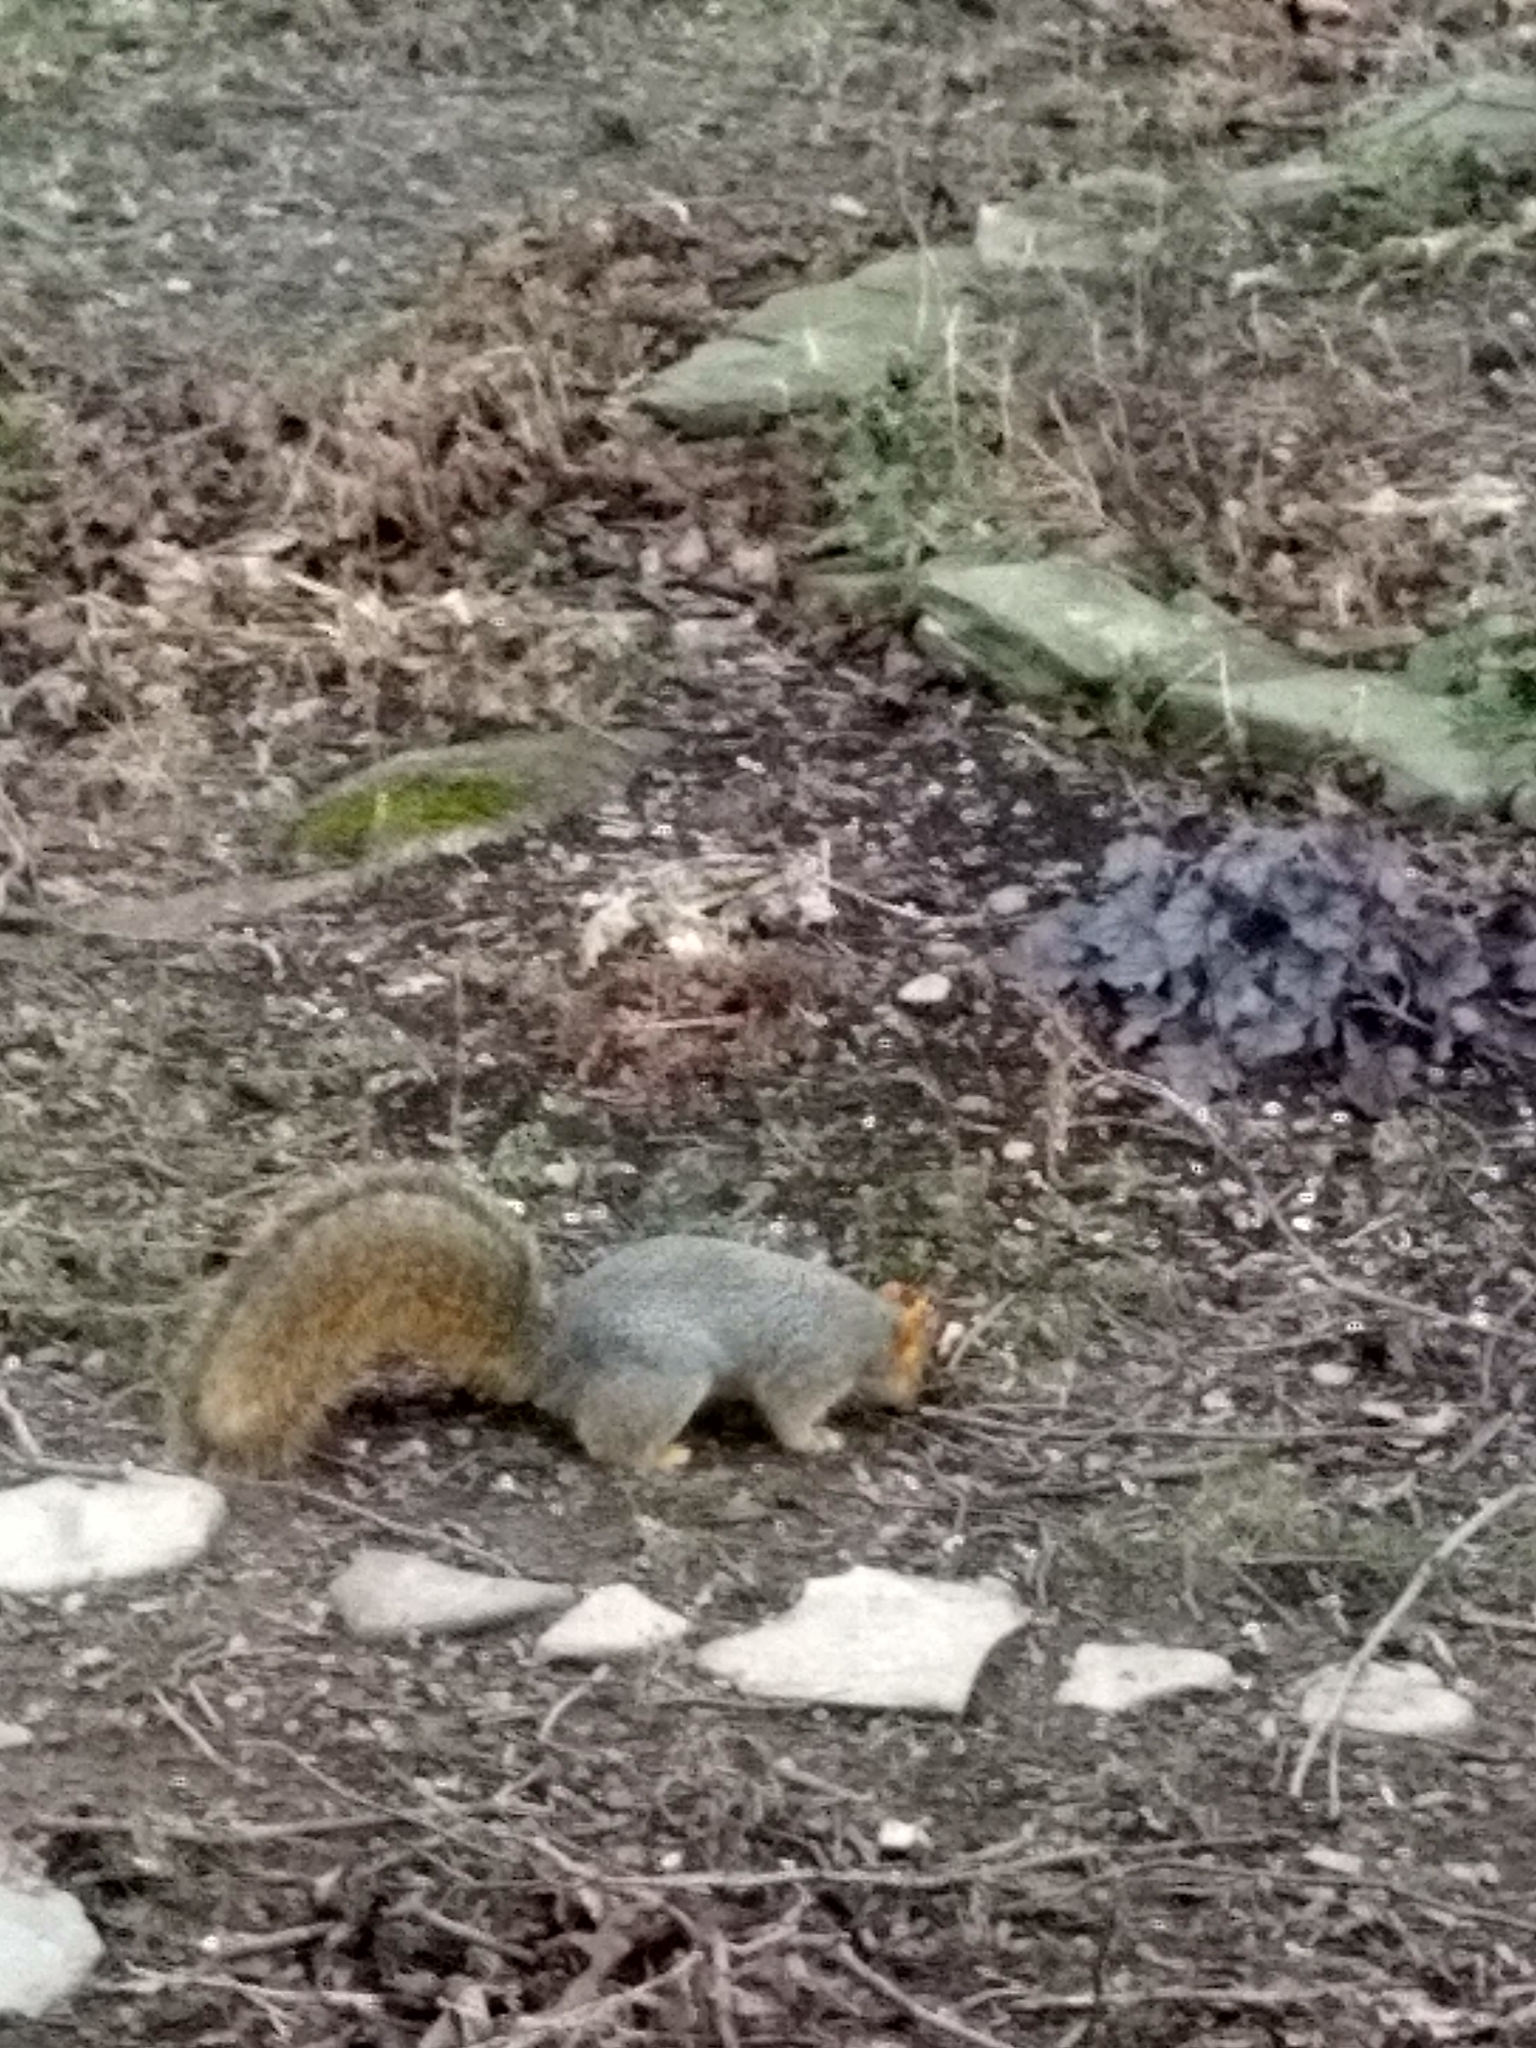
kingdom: Animalia
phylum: Chordata
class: Mammalia
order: Rodentia
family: Sciuridae
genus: Sciurus
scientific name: Sciurus niger
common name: Fox squirrel
